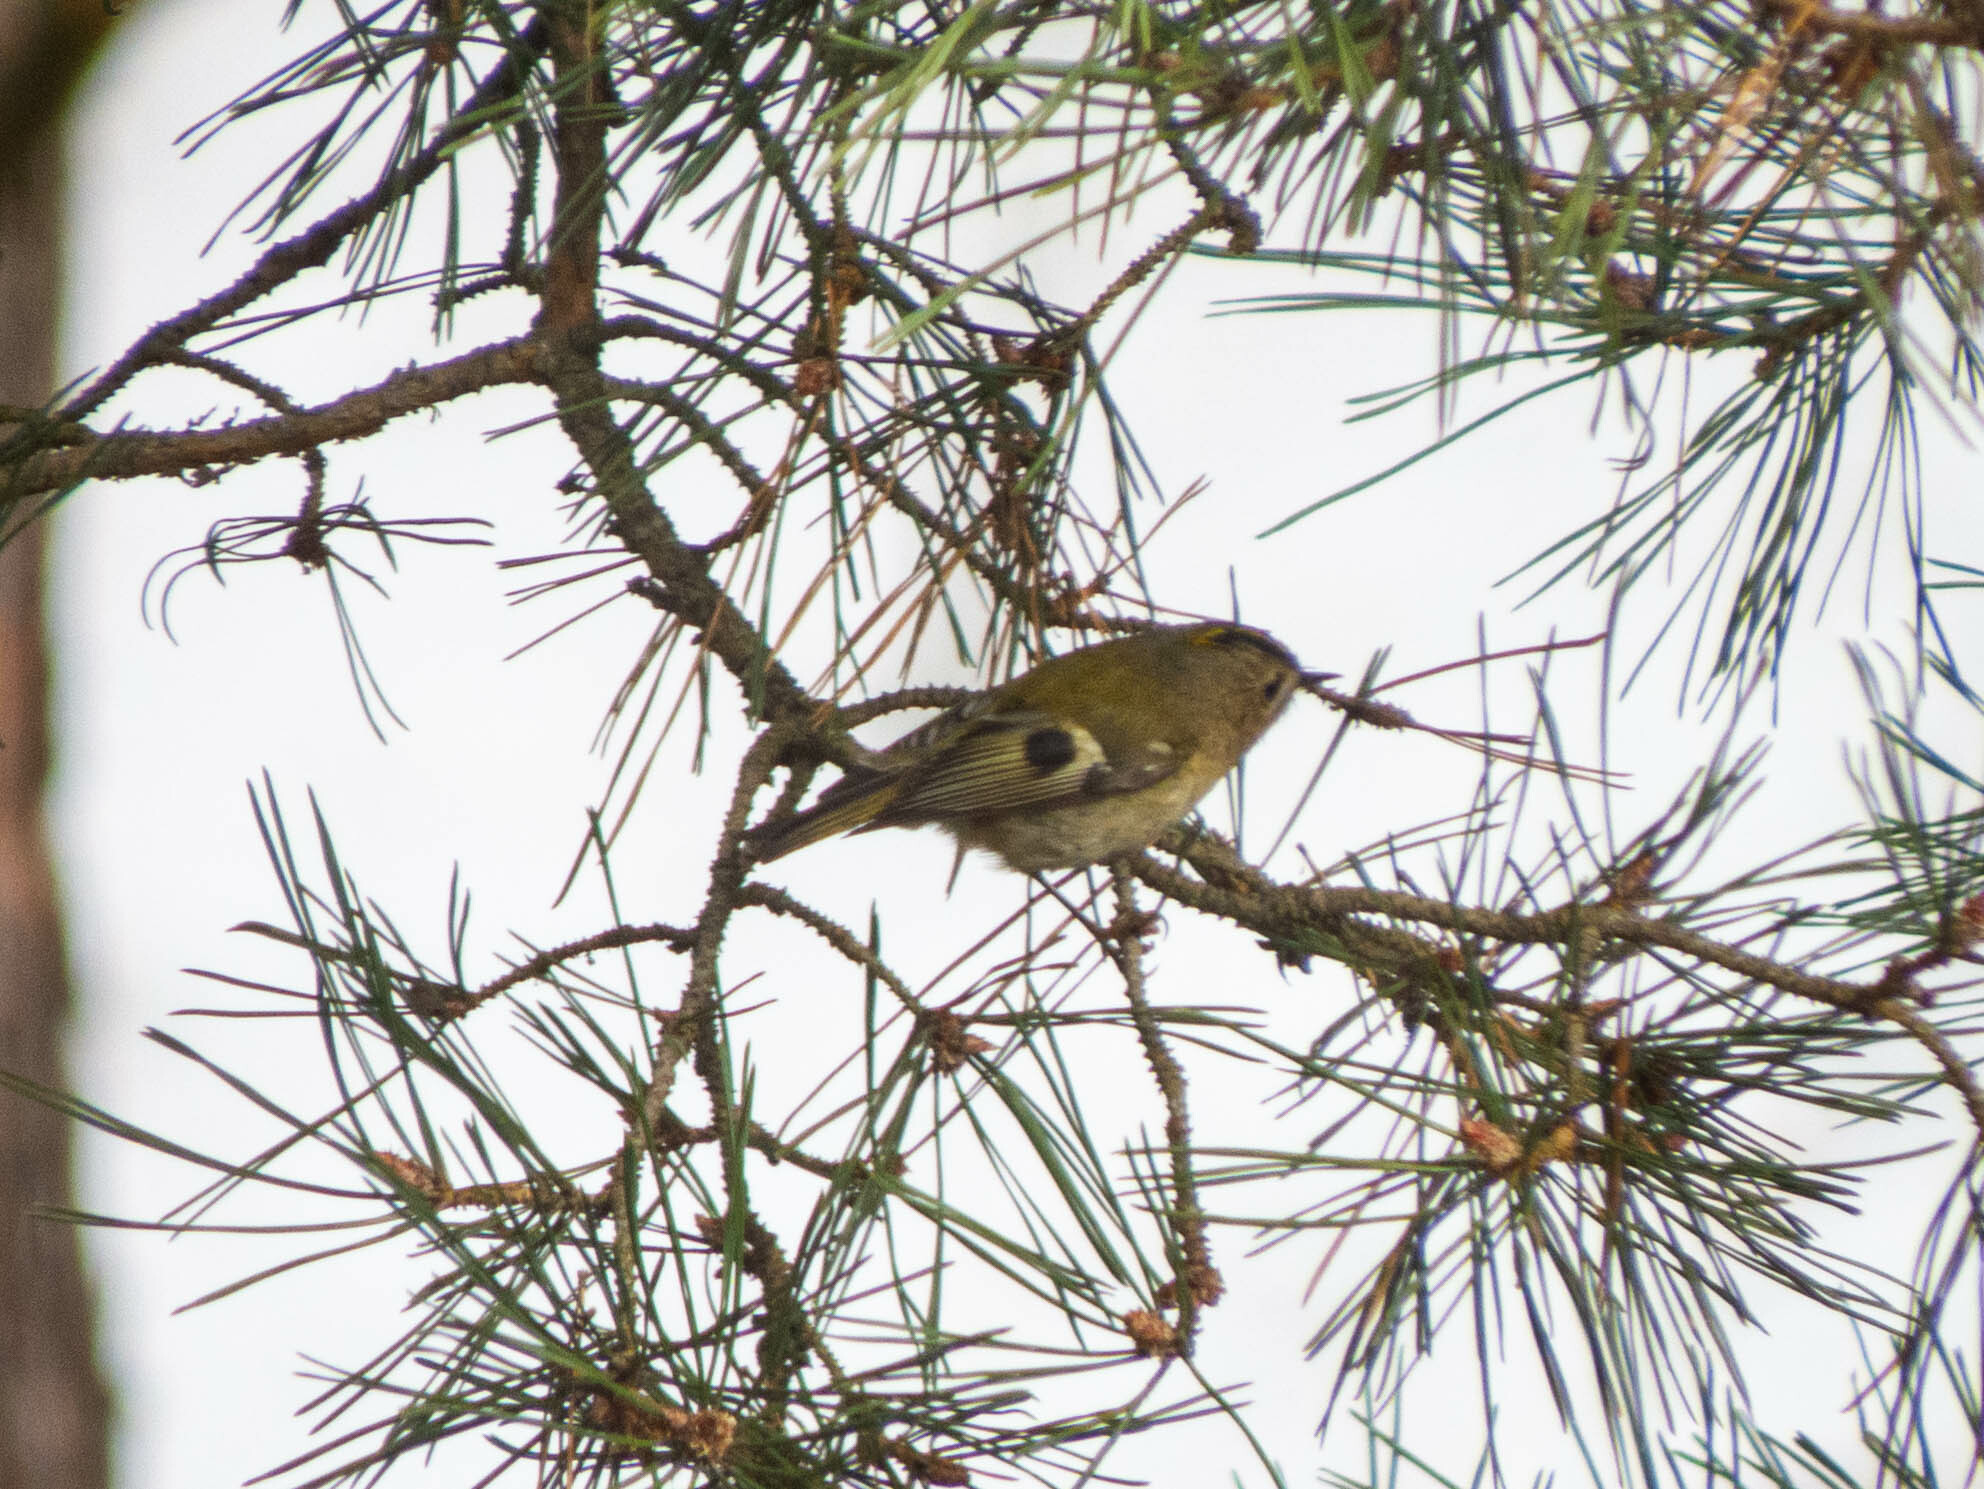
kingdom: Animalia
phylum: Chordata
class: Aves
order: Passeriformes
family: Regulidae
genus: Regulus
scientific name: Regulus regulus
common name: Goldcrest
